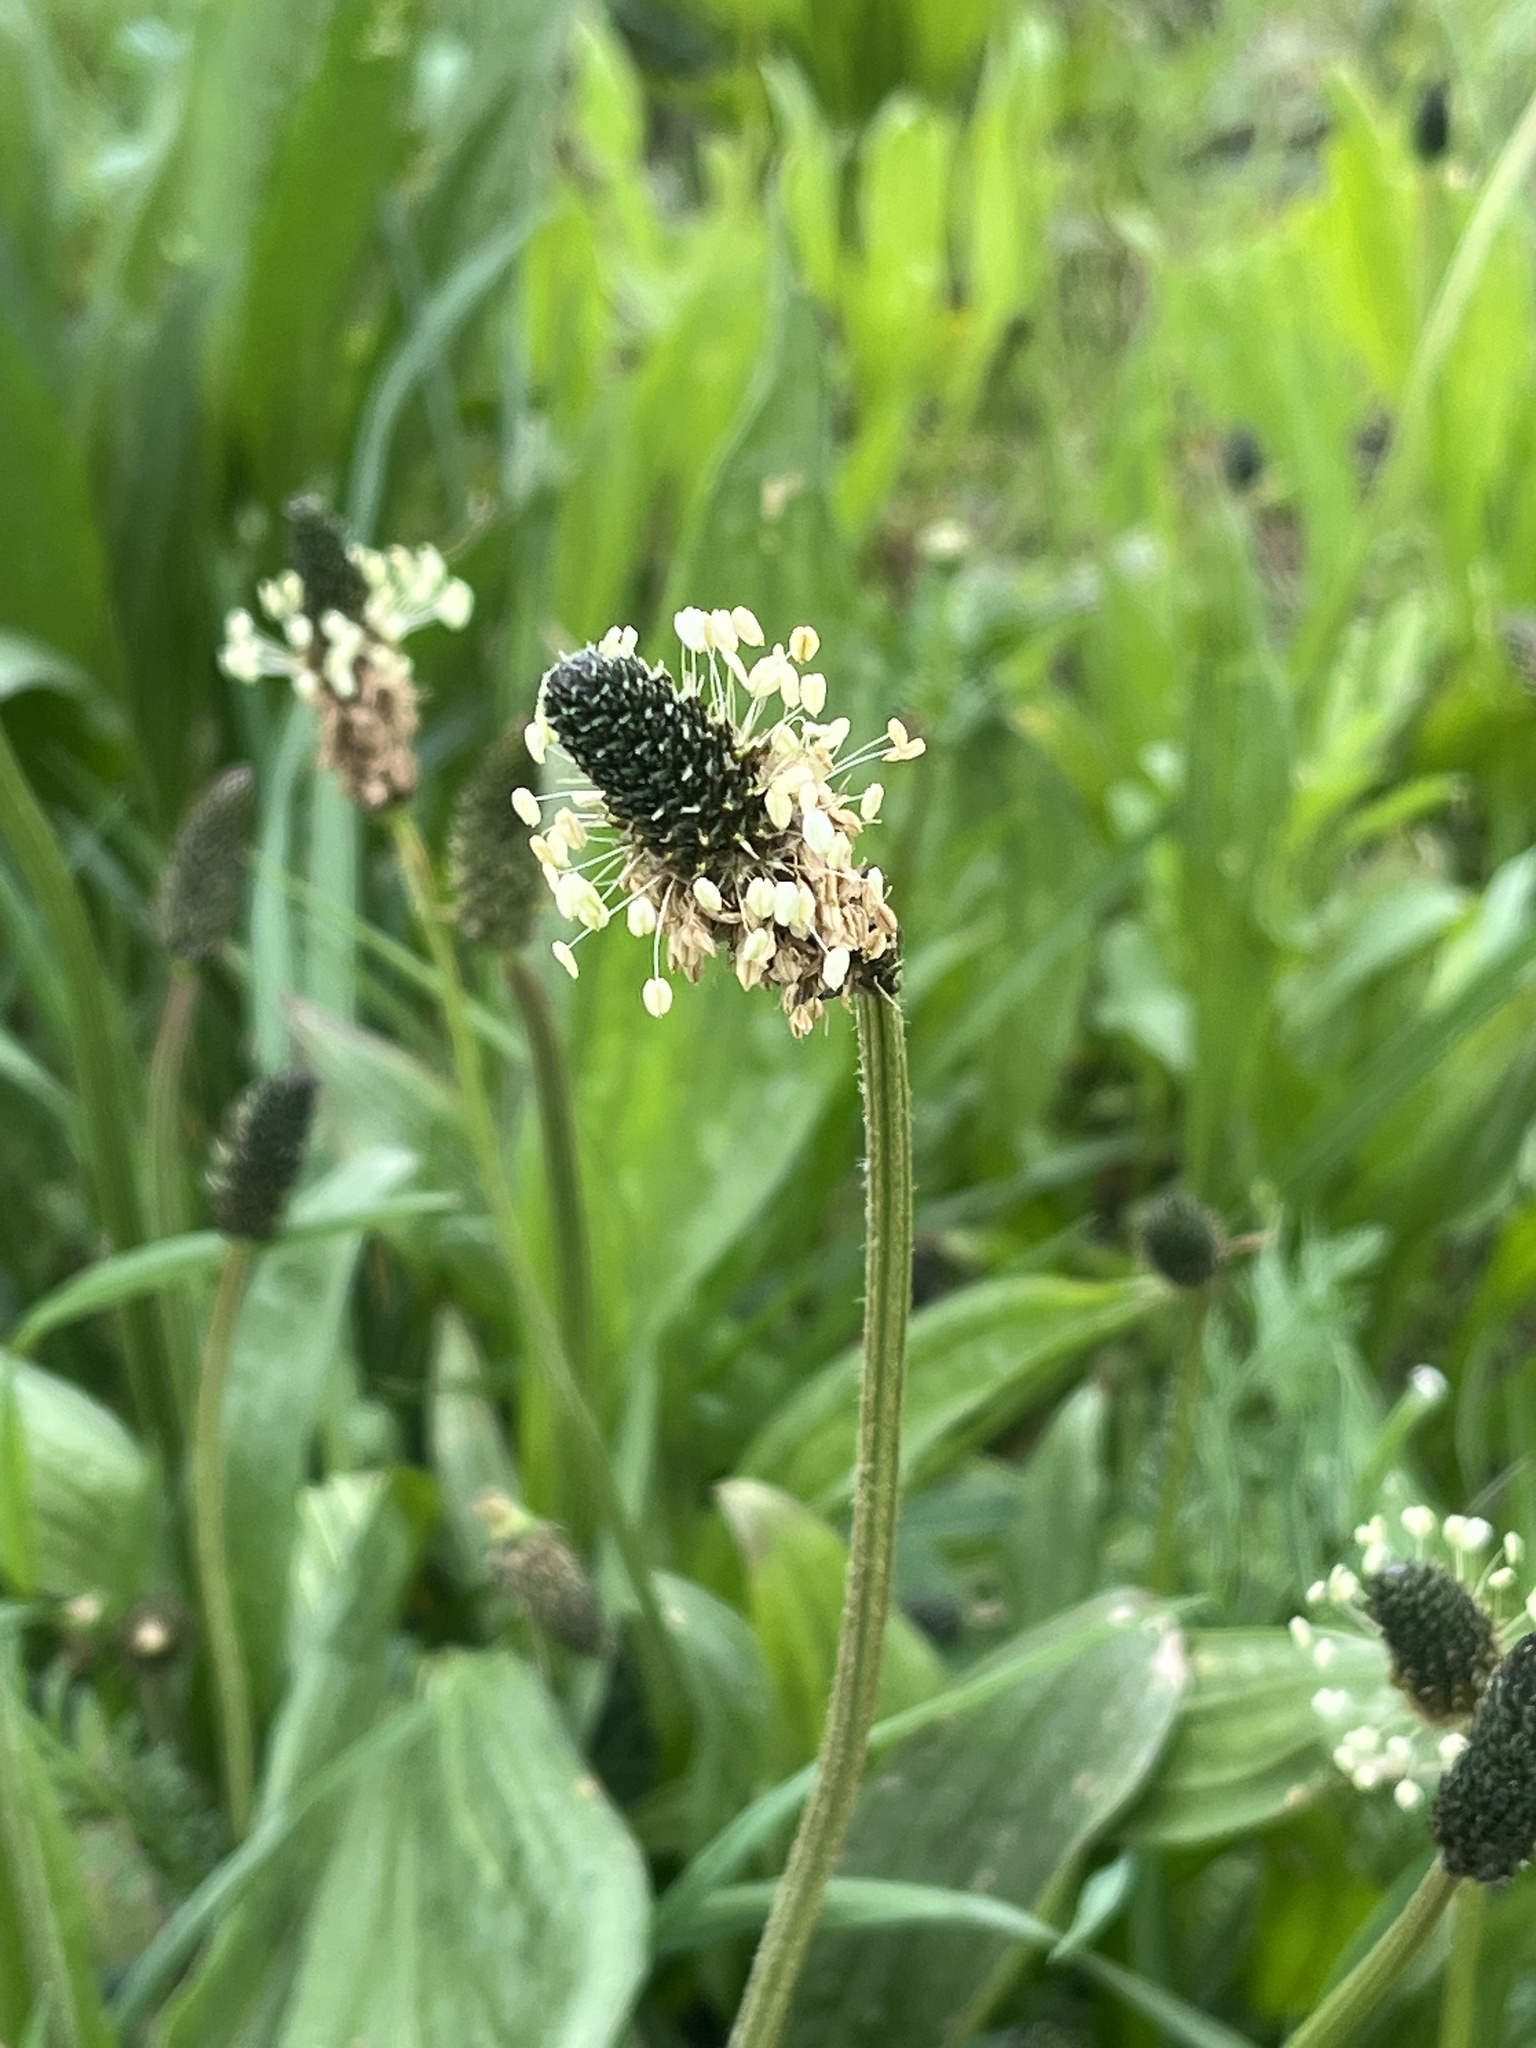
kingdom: Plantae
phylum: Tracheophyta
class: Magnoliopsida
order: Lamiales
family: Plantaginaceae
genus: Plantago
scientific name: Plantago lanceolata
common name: Ribwort plantain
